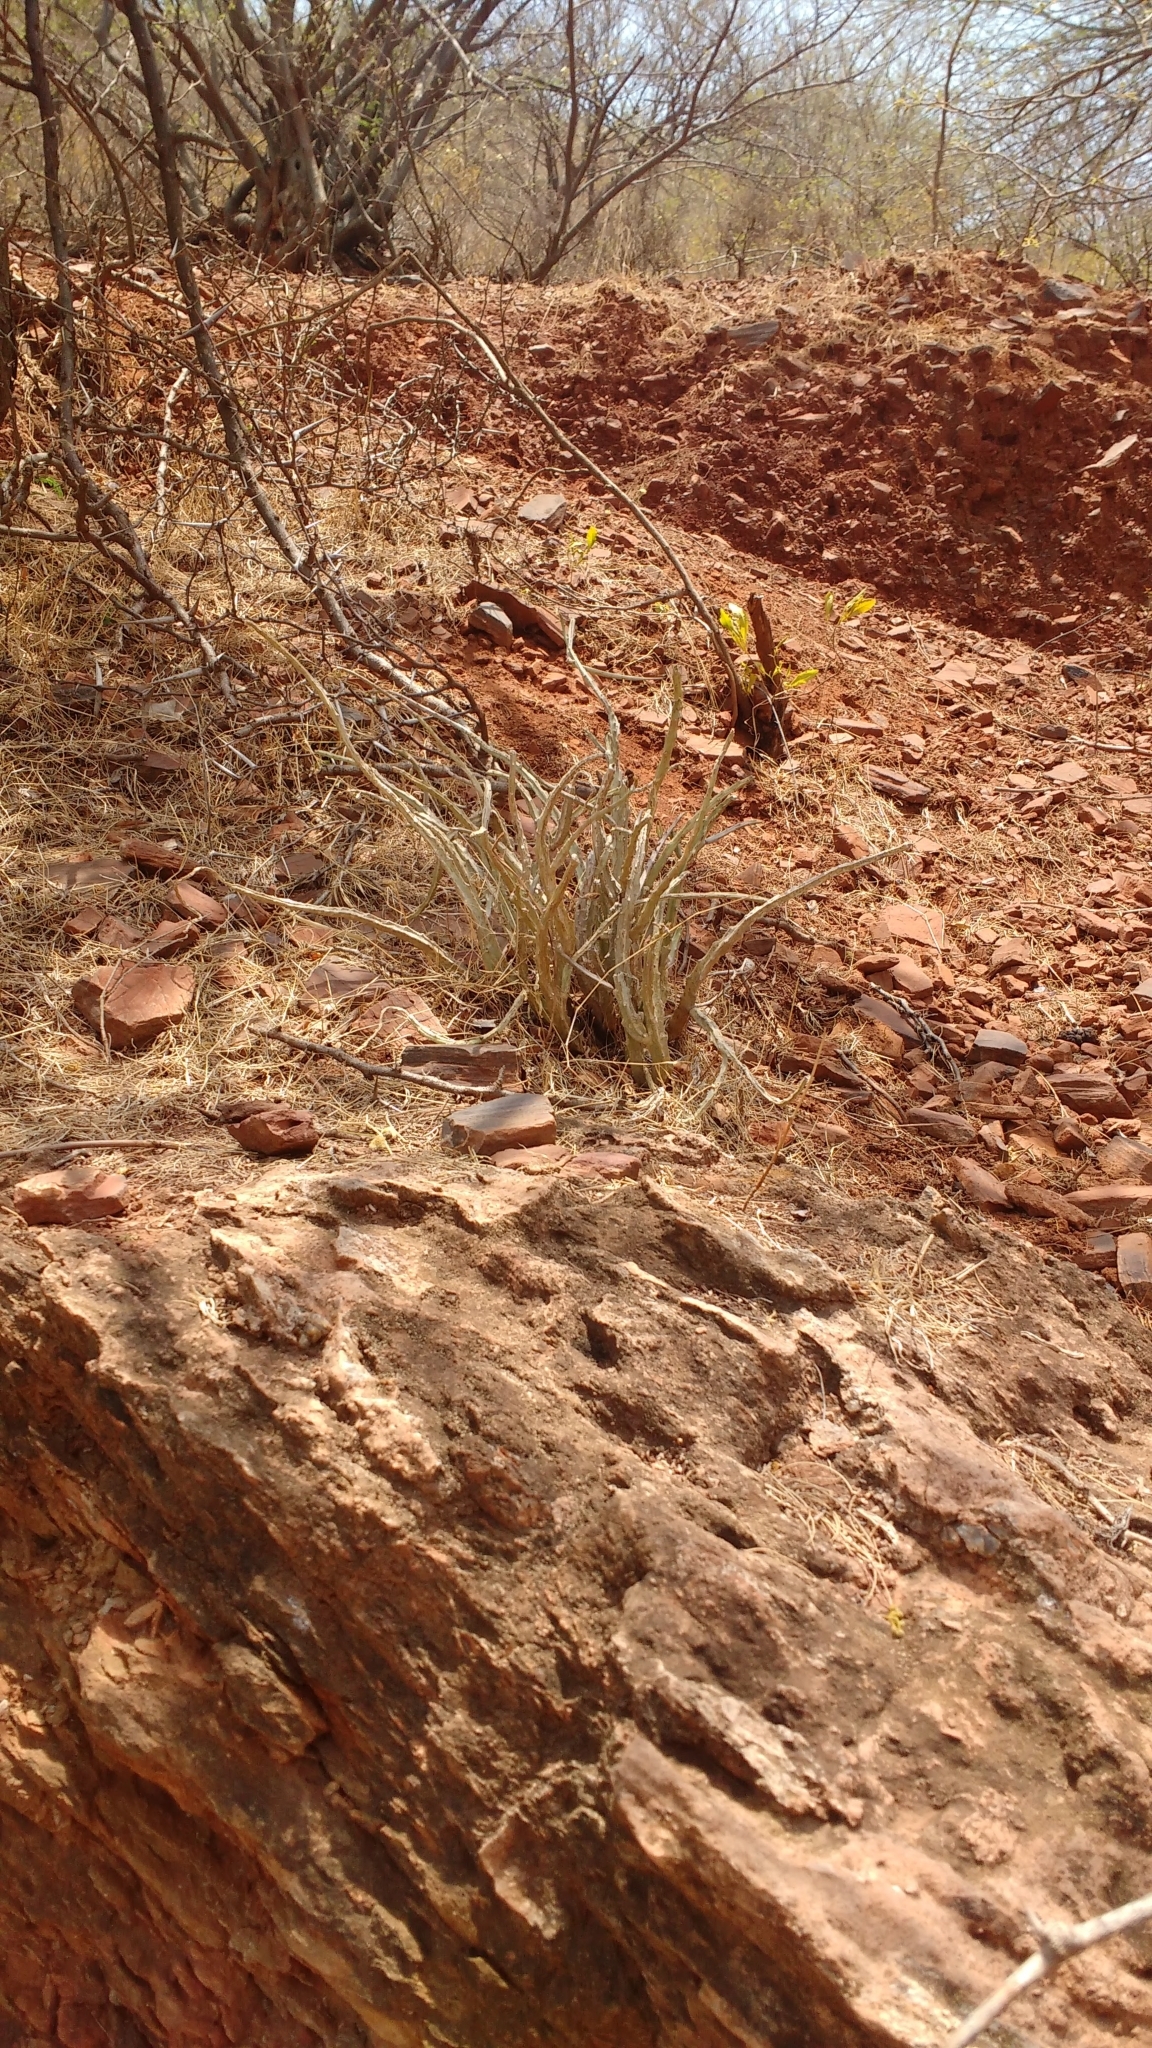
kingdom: Plantae
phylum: Tracheophyta
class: Magnoliopsida
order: Gentianales
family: Apocynaceae
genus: Ceropegia
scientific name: Ceropegia adscendens
